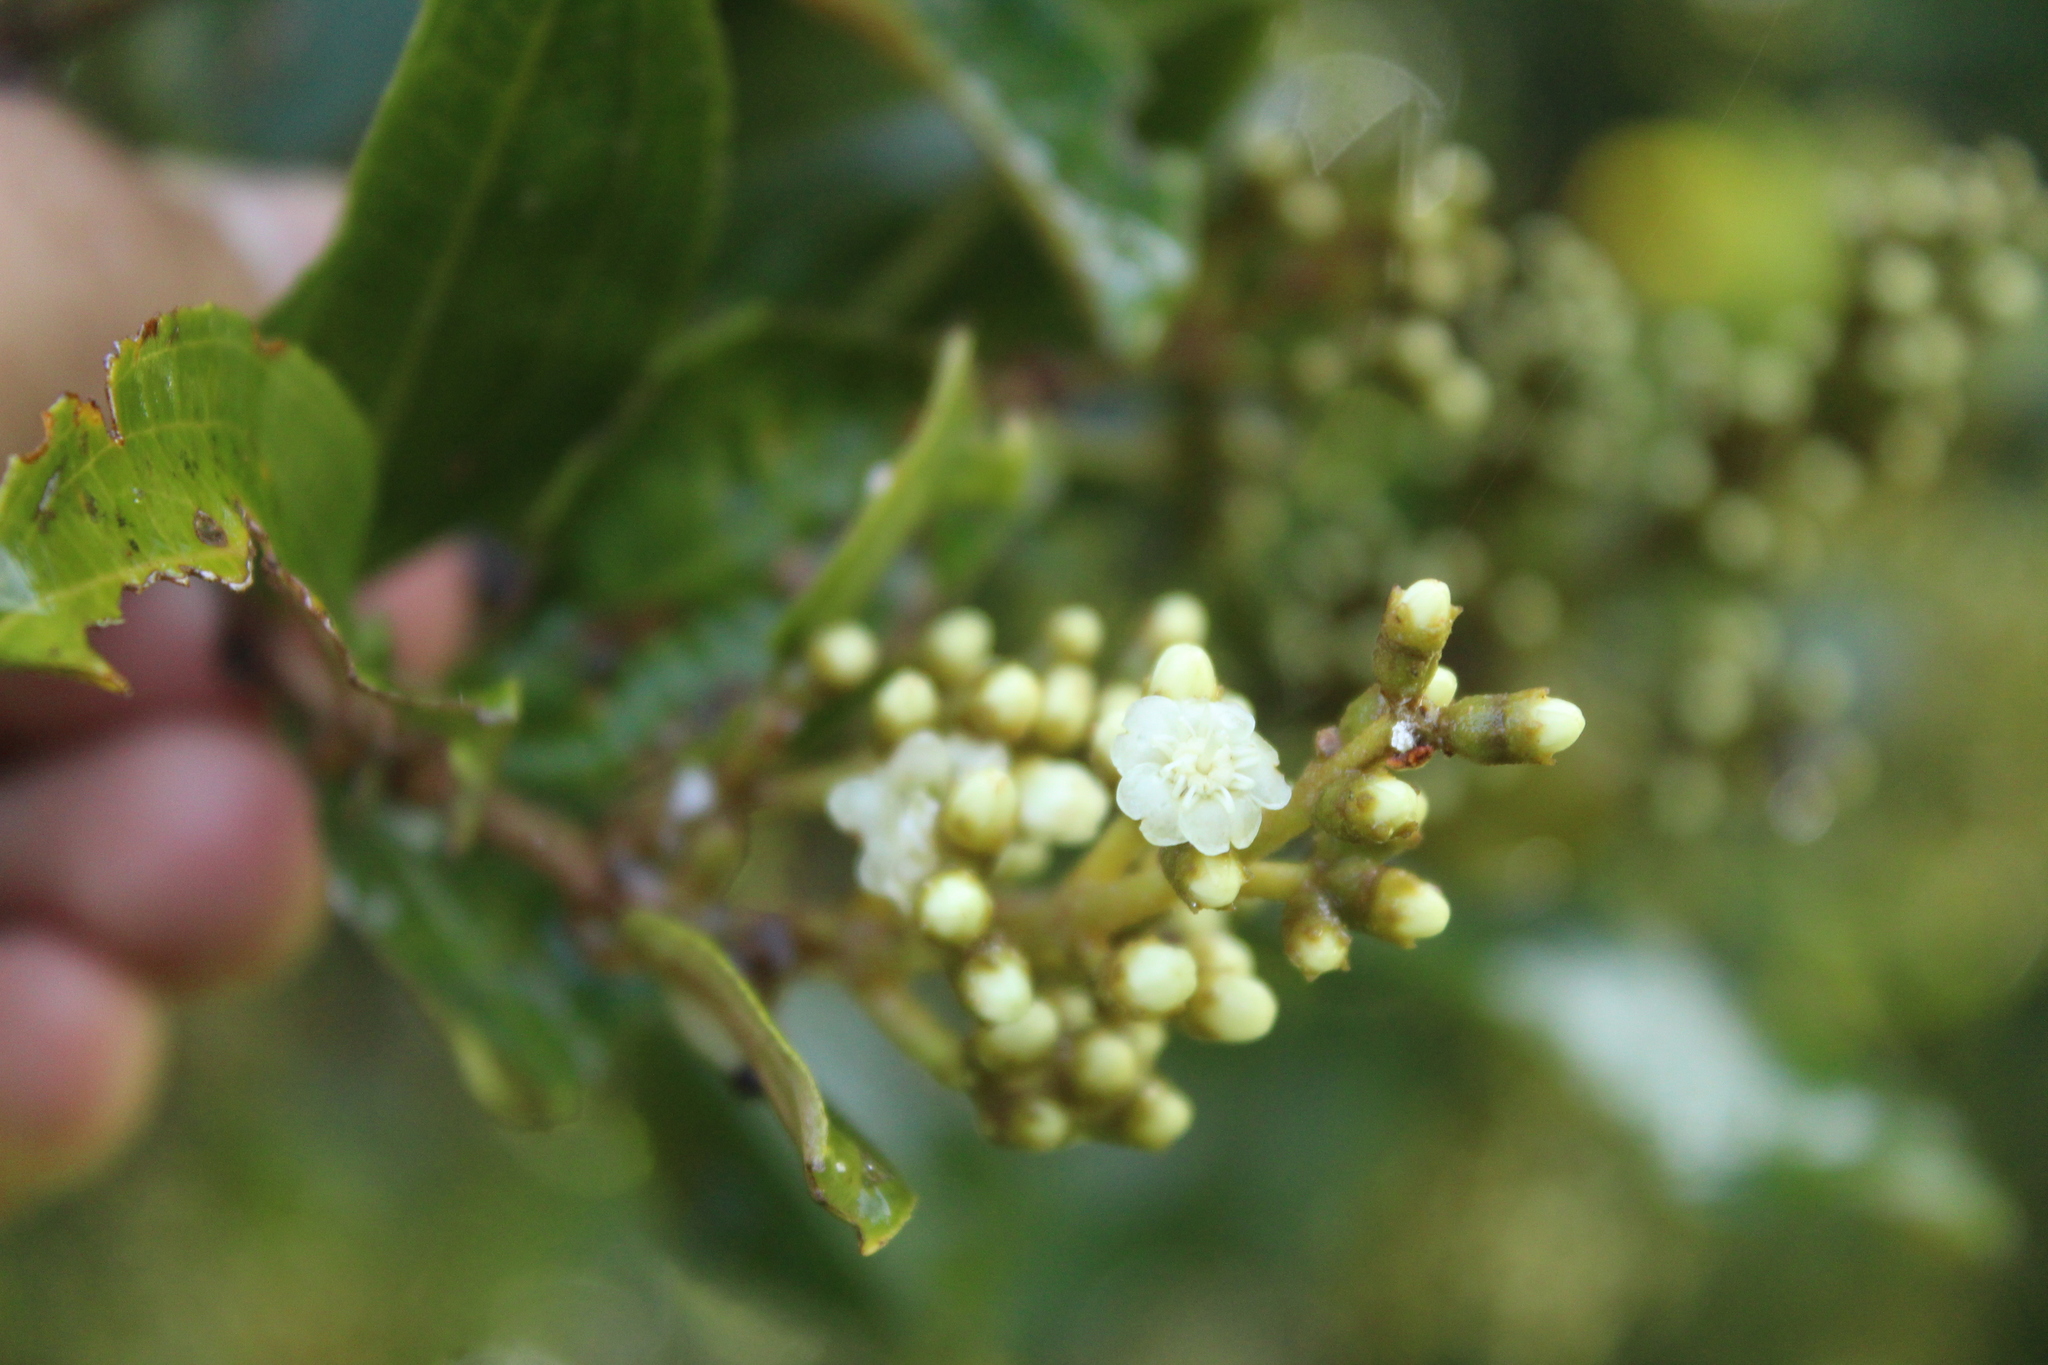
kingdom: Plantae
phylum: Tracheophyta
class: Magnoliopsida
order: Myrtales
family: Melastomataceae
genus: Miconia
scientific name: Miconia squamulosa
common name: Squamulose maya
